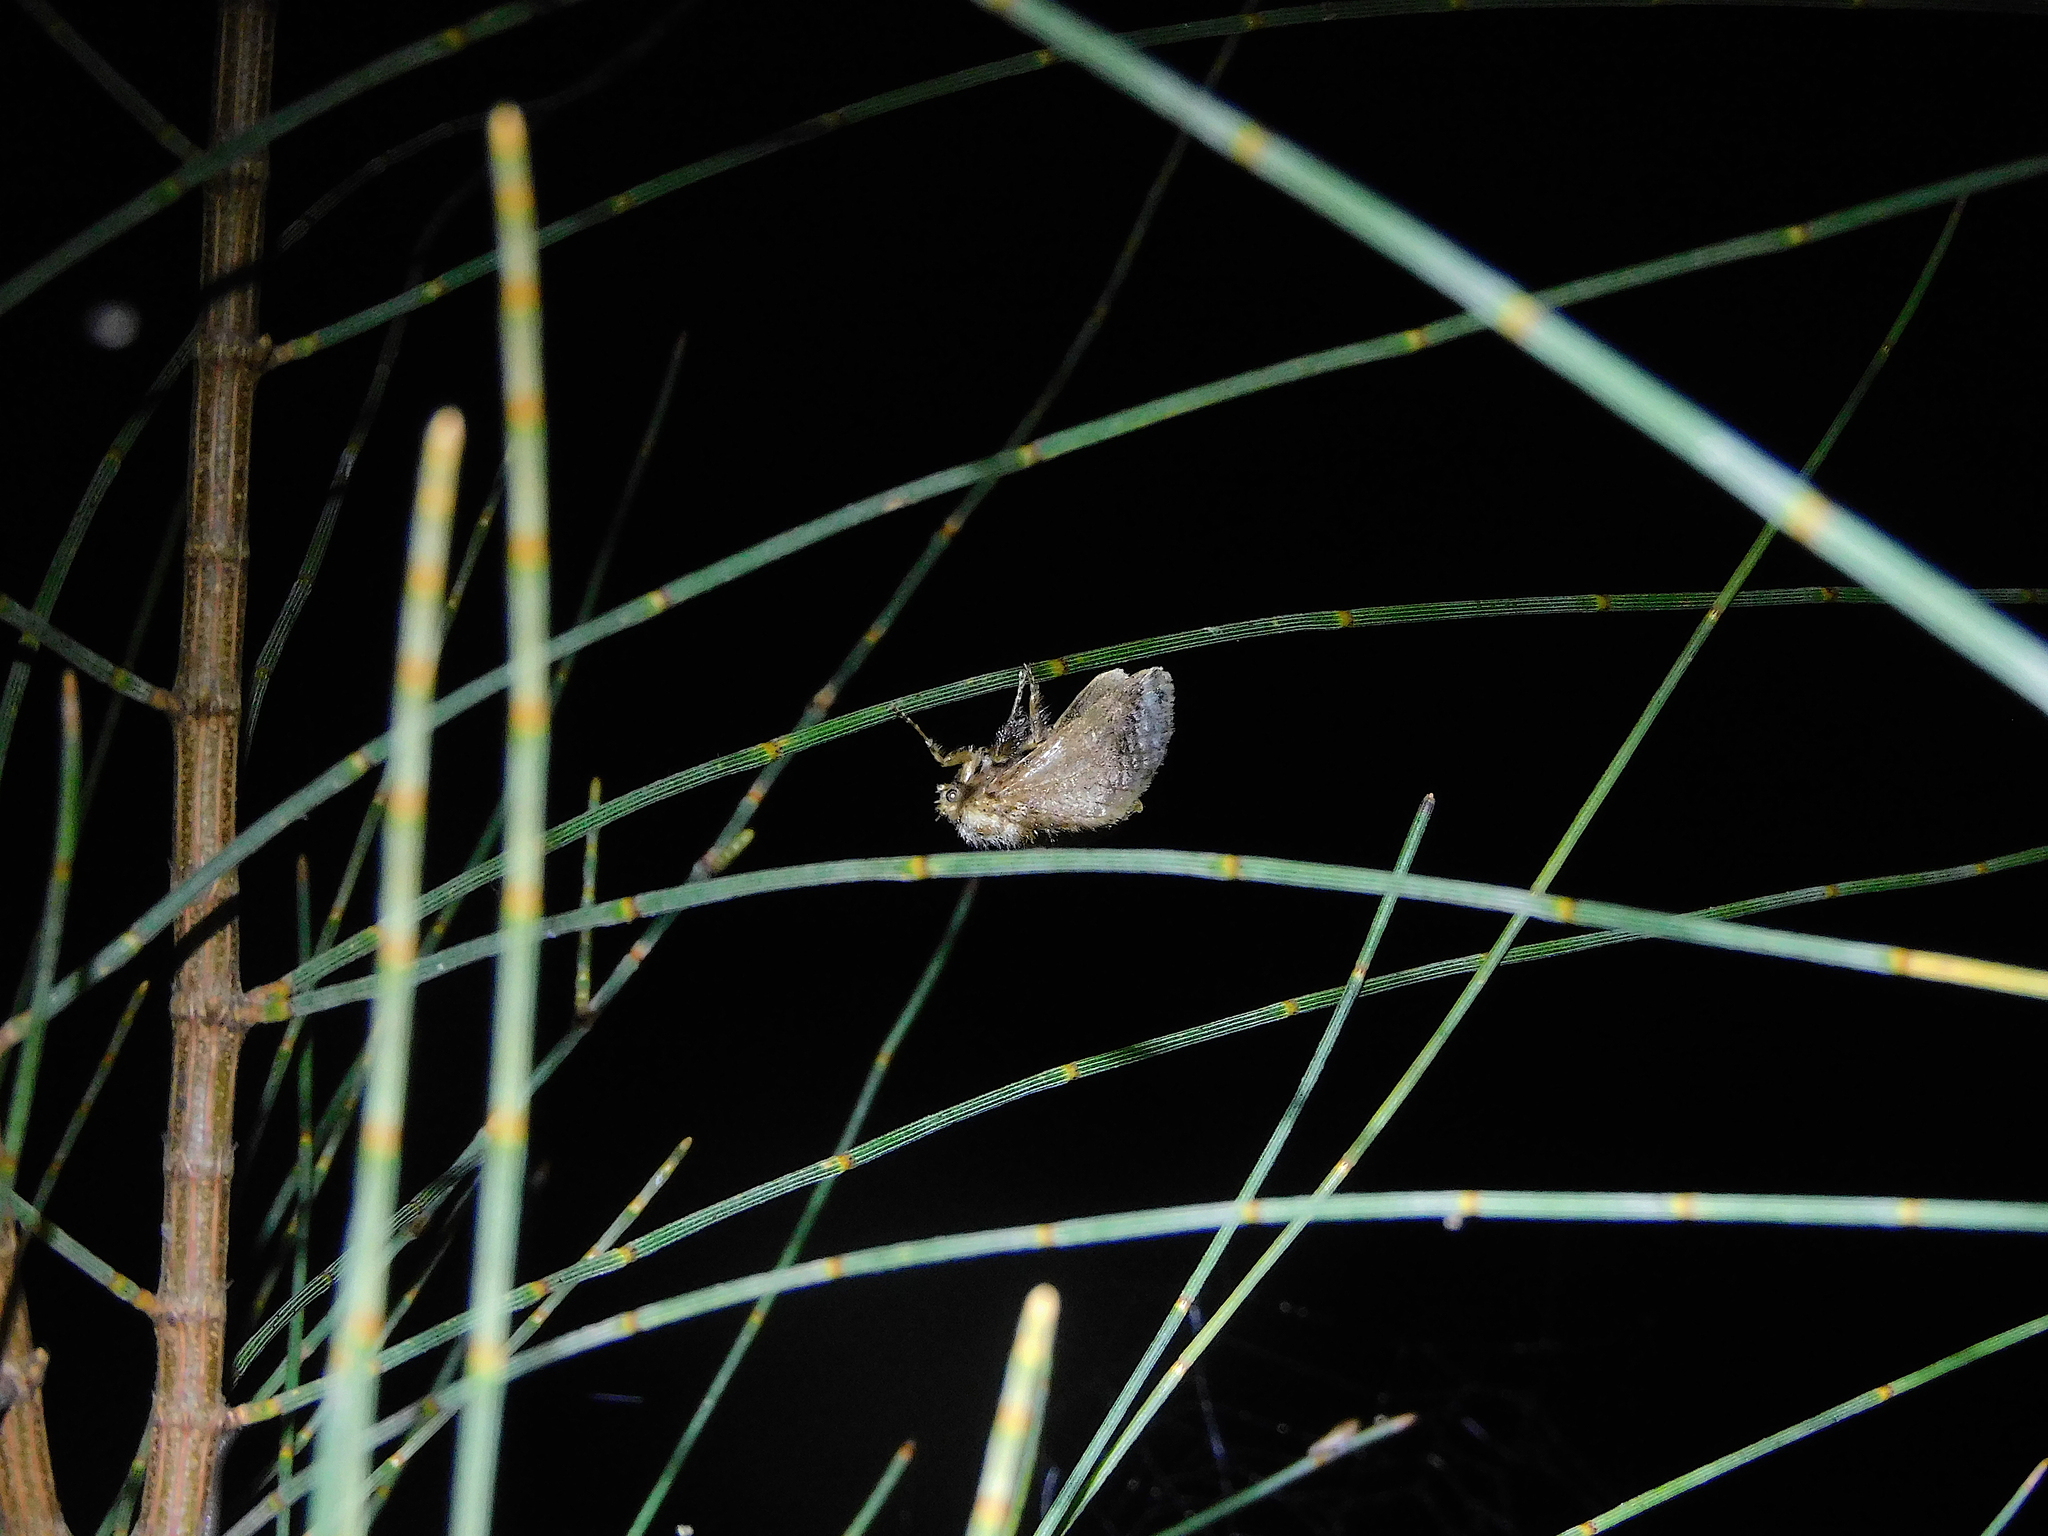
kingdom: Animalia
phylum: Arthropoda
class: Insecta
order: Lepidoptera
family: Limacodidae
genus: Doratifera
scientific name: Doratifera oxleyi
